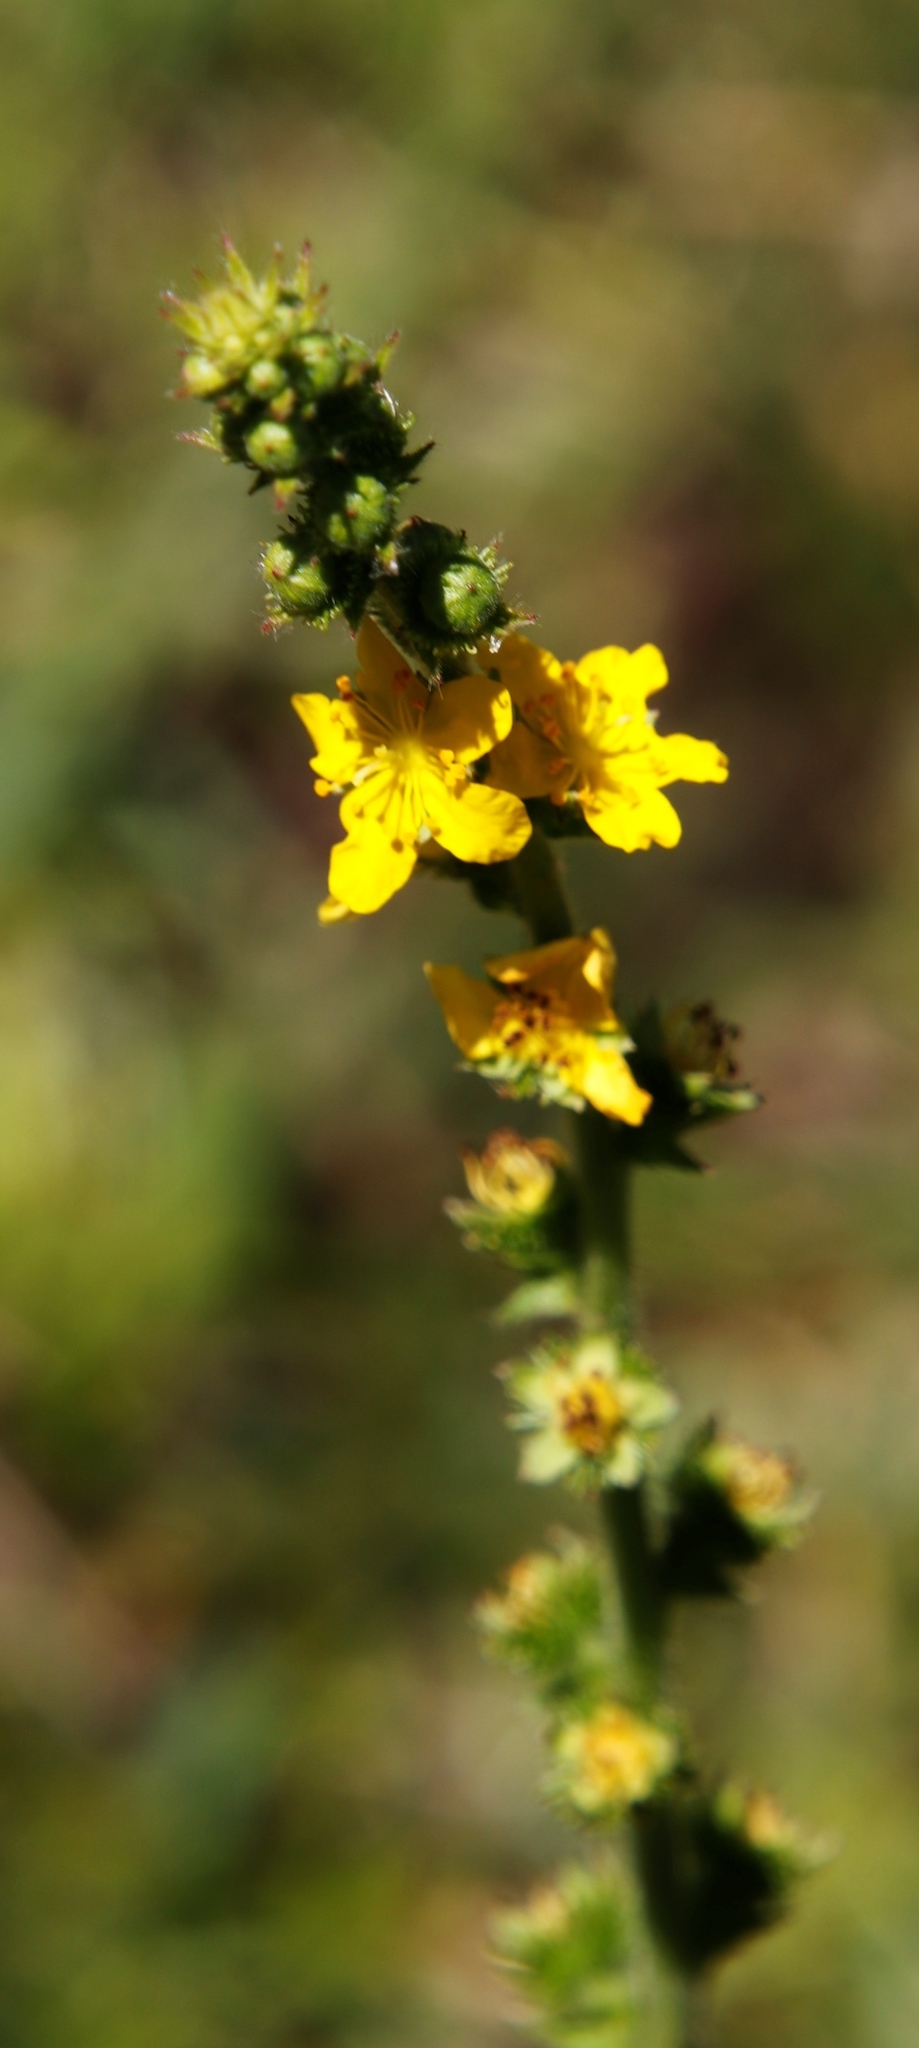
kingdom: Plantae
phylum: Tracheophyta
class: Magnoliopsida
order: Rosales
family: Rosaceae
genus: Agrimonia
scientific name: Agrimonia bracteata
